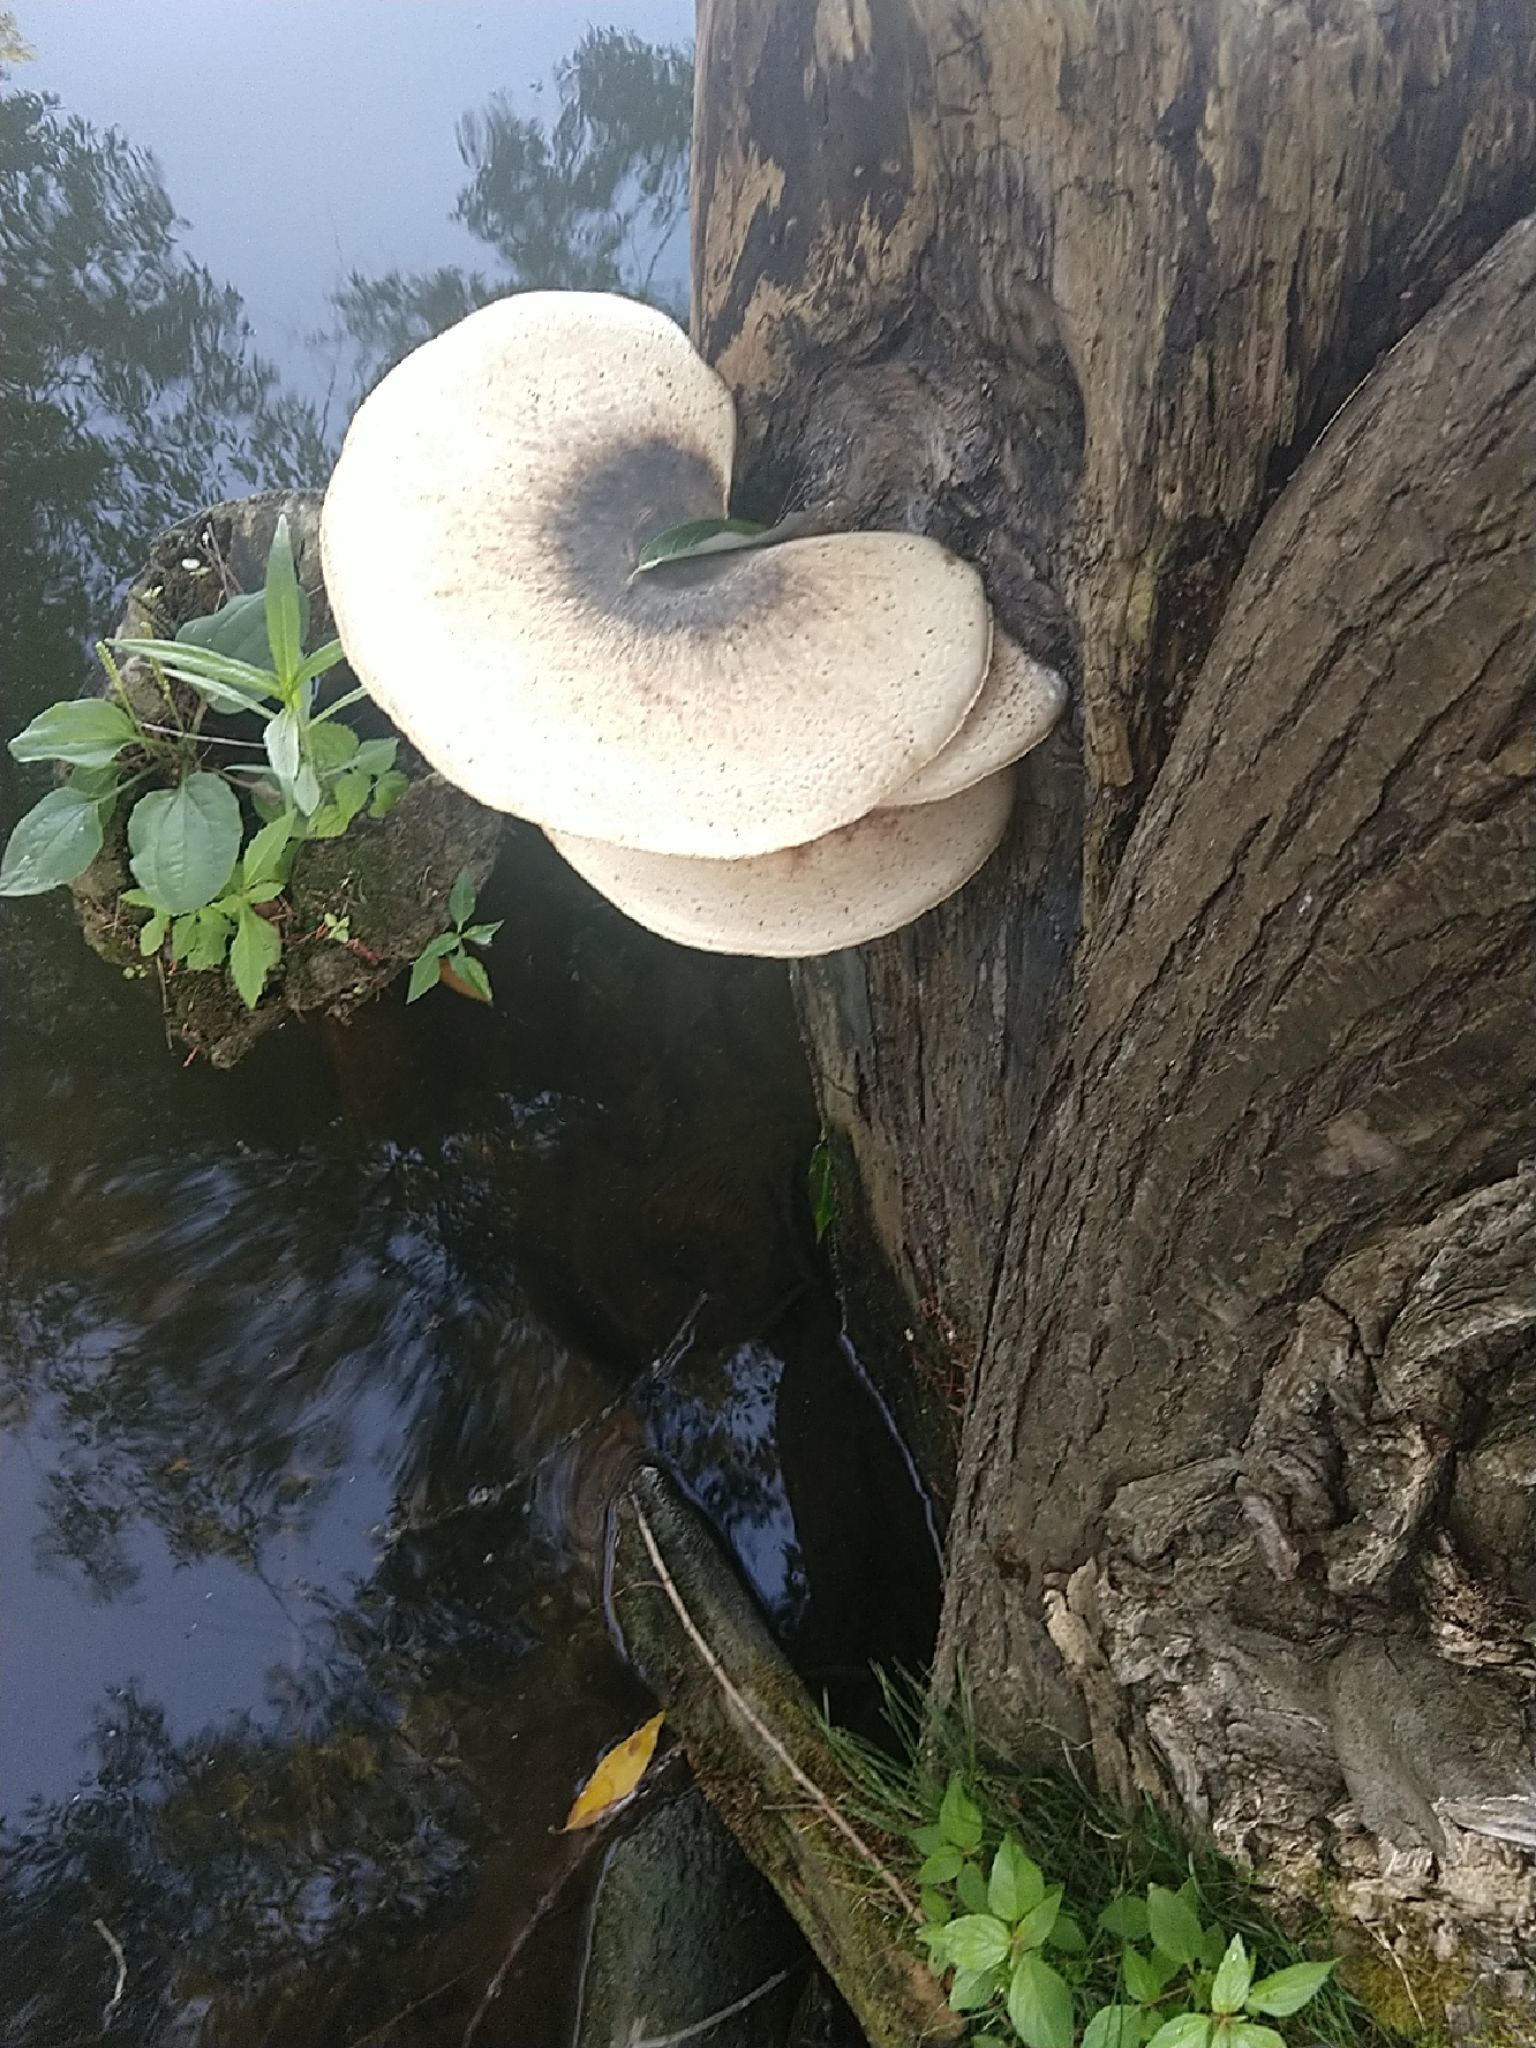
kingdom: Fungi
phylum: Basidiomycota
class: Agaricomycetes
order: Polyporales
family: Polyporaceae
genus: Cerioporus
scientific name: Cerioporus squamosus
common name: Dryad's saddle
